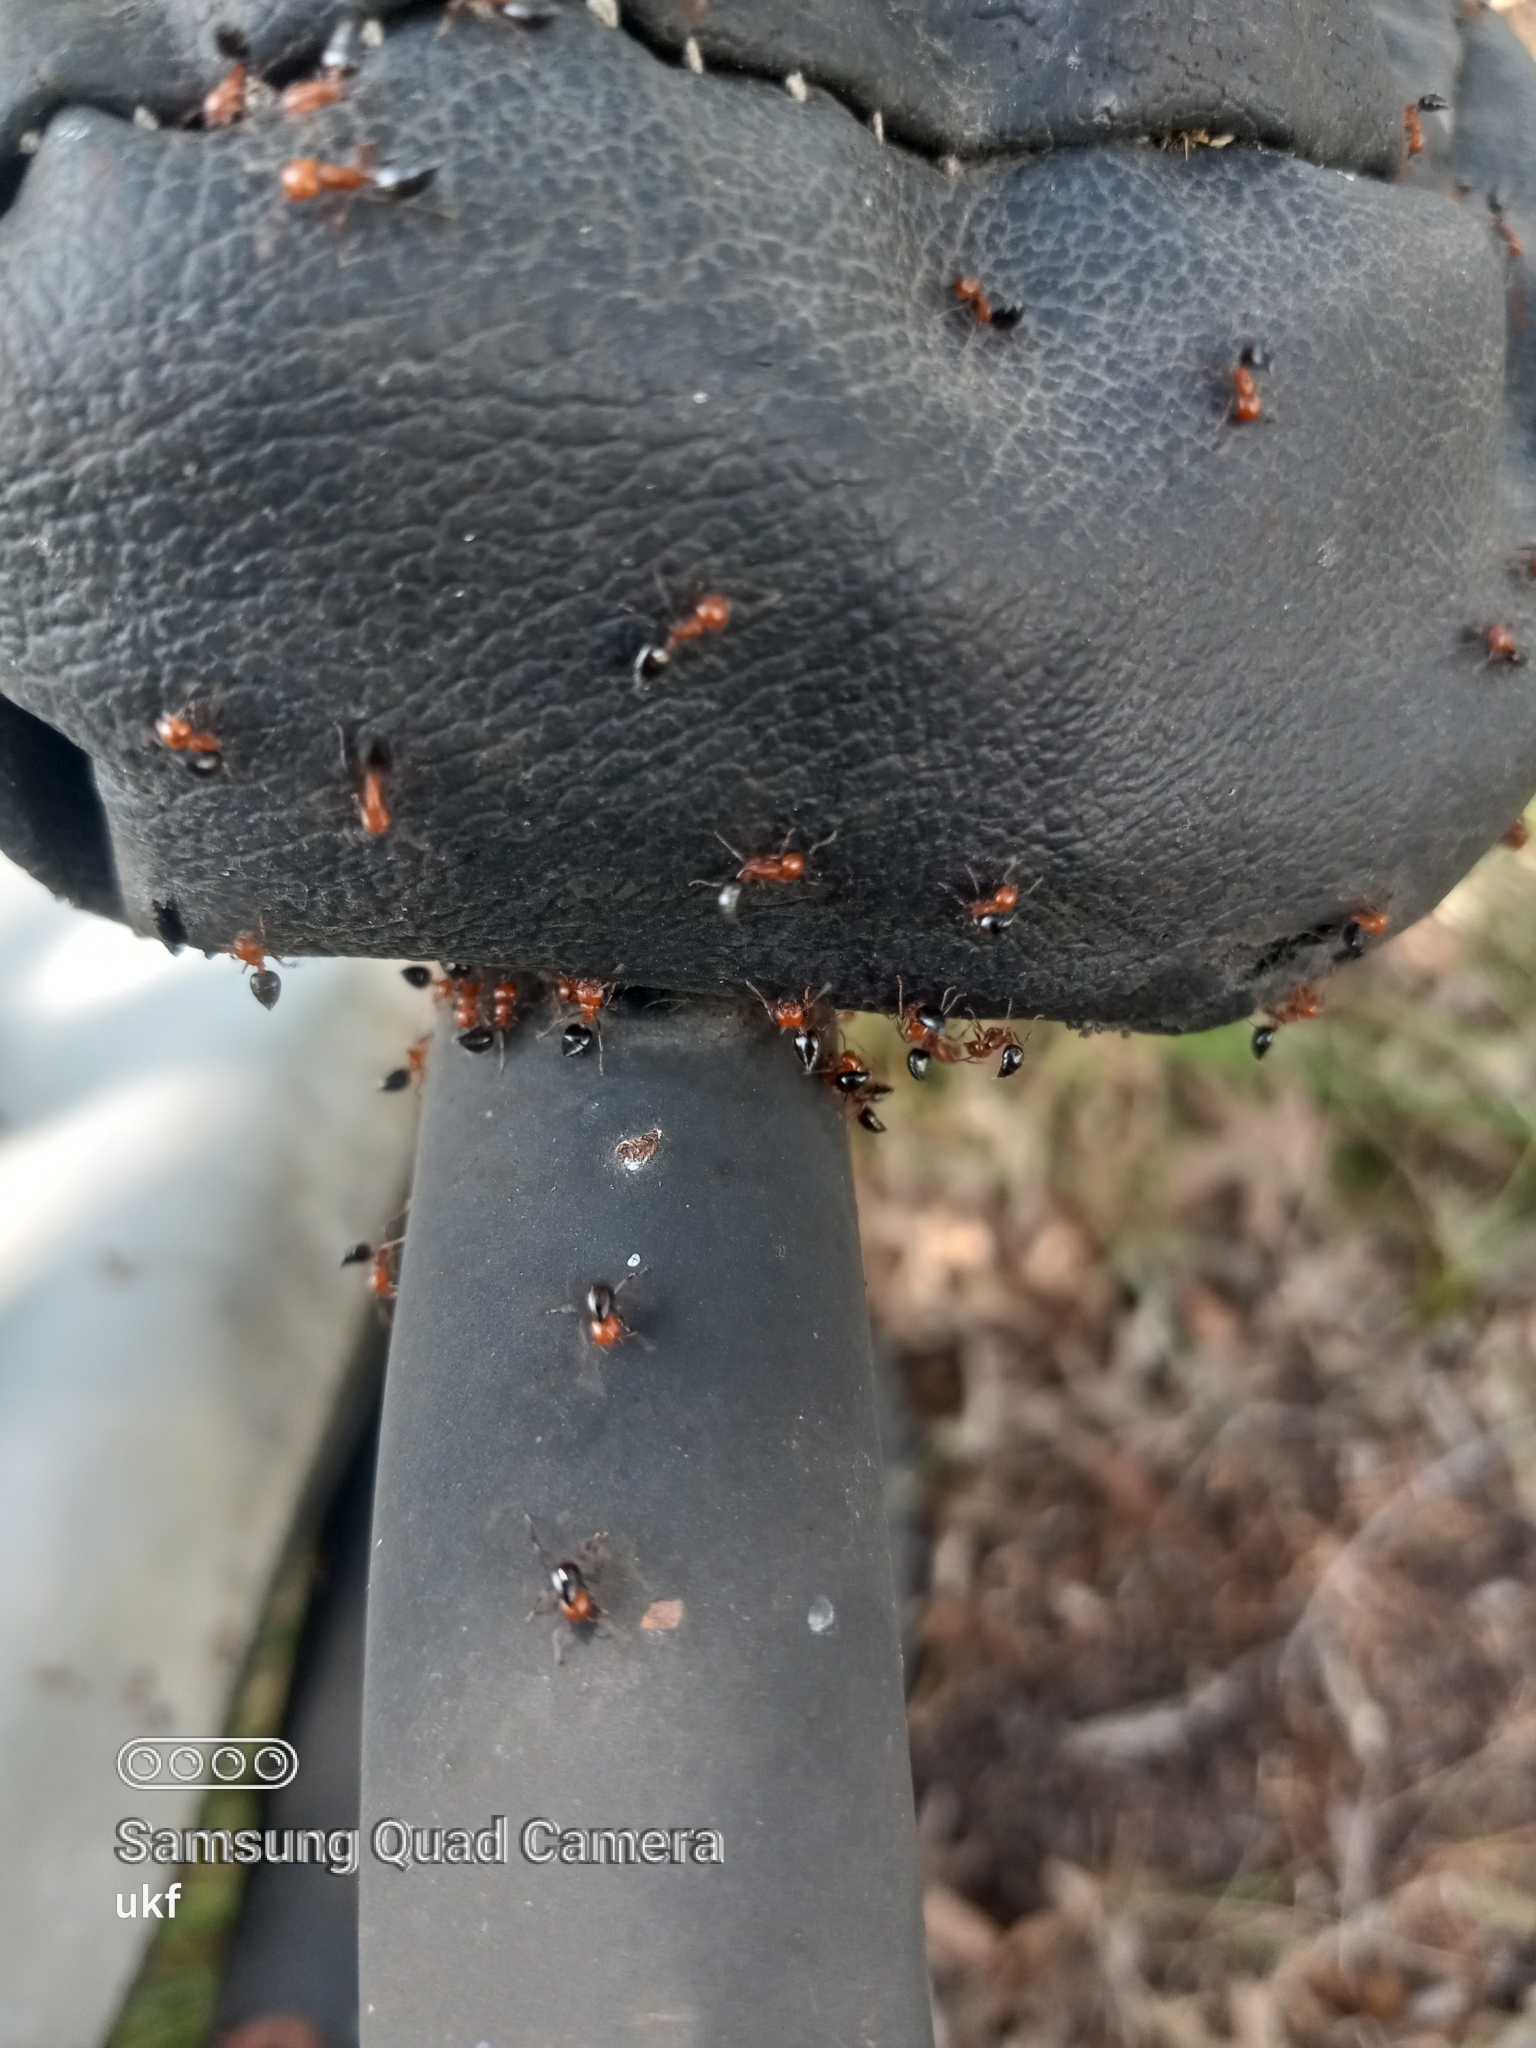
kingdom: Animalia
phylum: Arthropoda
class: Insecta
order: Hymenoptera
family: Formicidae
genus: Crematogaster
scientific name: Crematogaster laeviuscula
